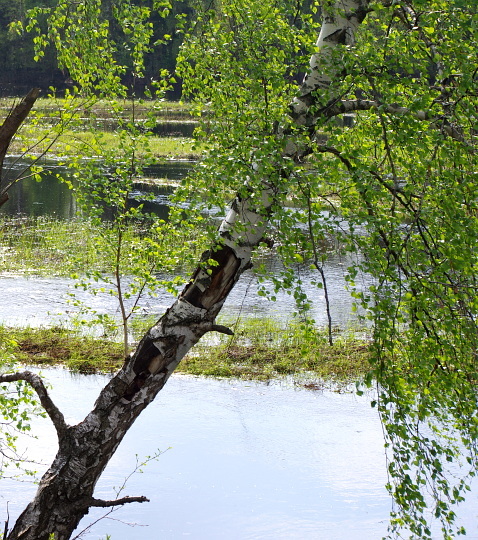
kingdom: Plantae
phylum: Tracheophyta
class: Magnoliopsida
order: Fagales
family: Betulaceae
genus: Betula
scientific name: Betula pendula
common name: Silver birch
